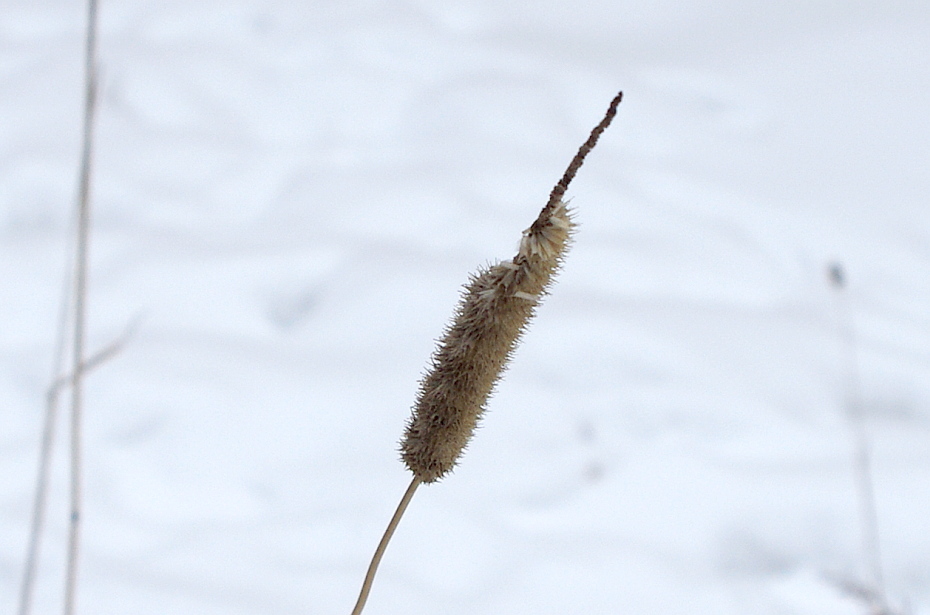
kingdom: Plantae
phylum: Tracheophyta
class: Liliopsida
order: Poales
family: Poaceae
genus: Phleum
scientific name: Phleum pratense
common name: Timothy grass
